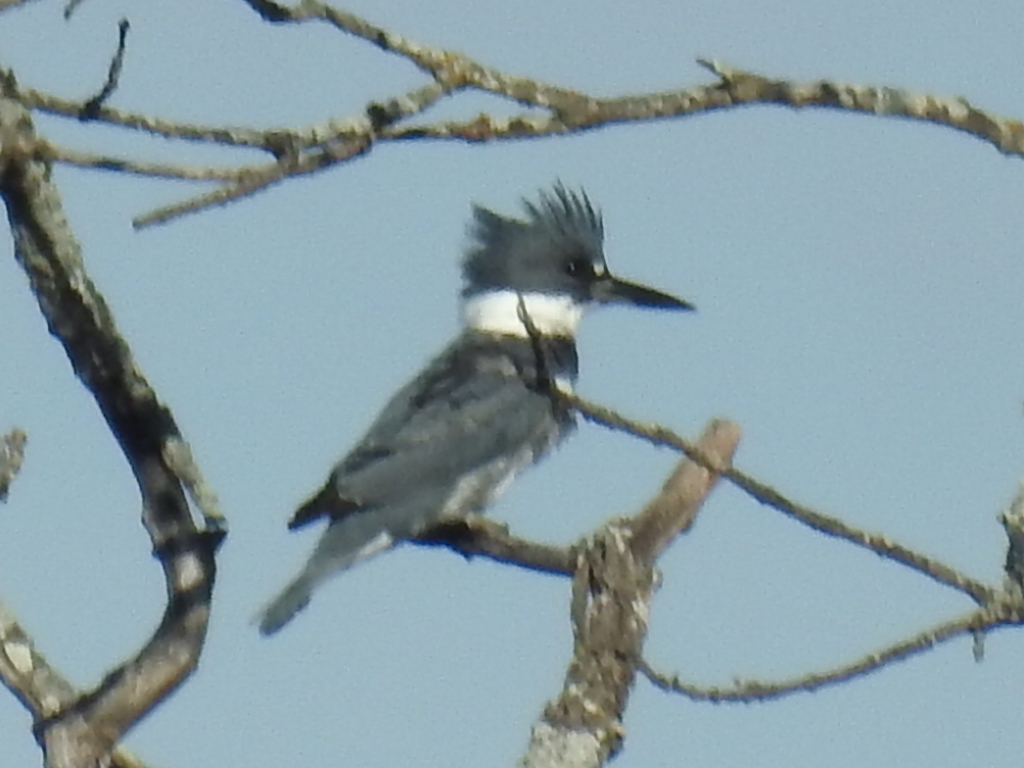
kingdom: Animalia
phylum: Chordata
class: Aves
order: Coraciiformes
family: Alcedinidae
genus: Megaceryle
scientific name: Megaceryle alcyon
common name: Belted kingfisher
